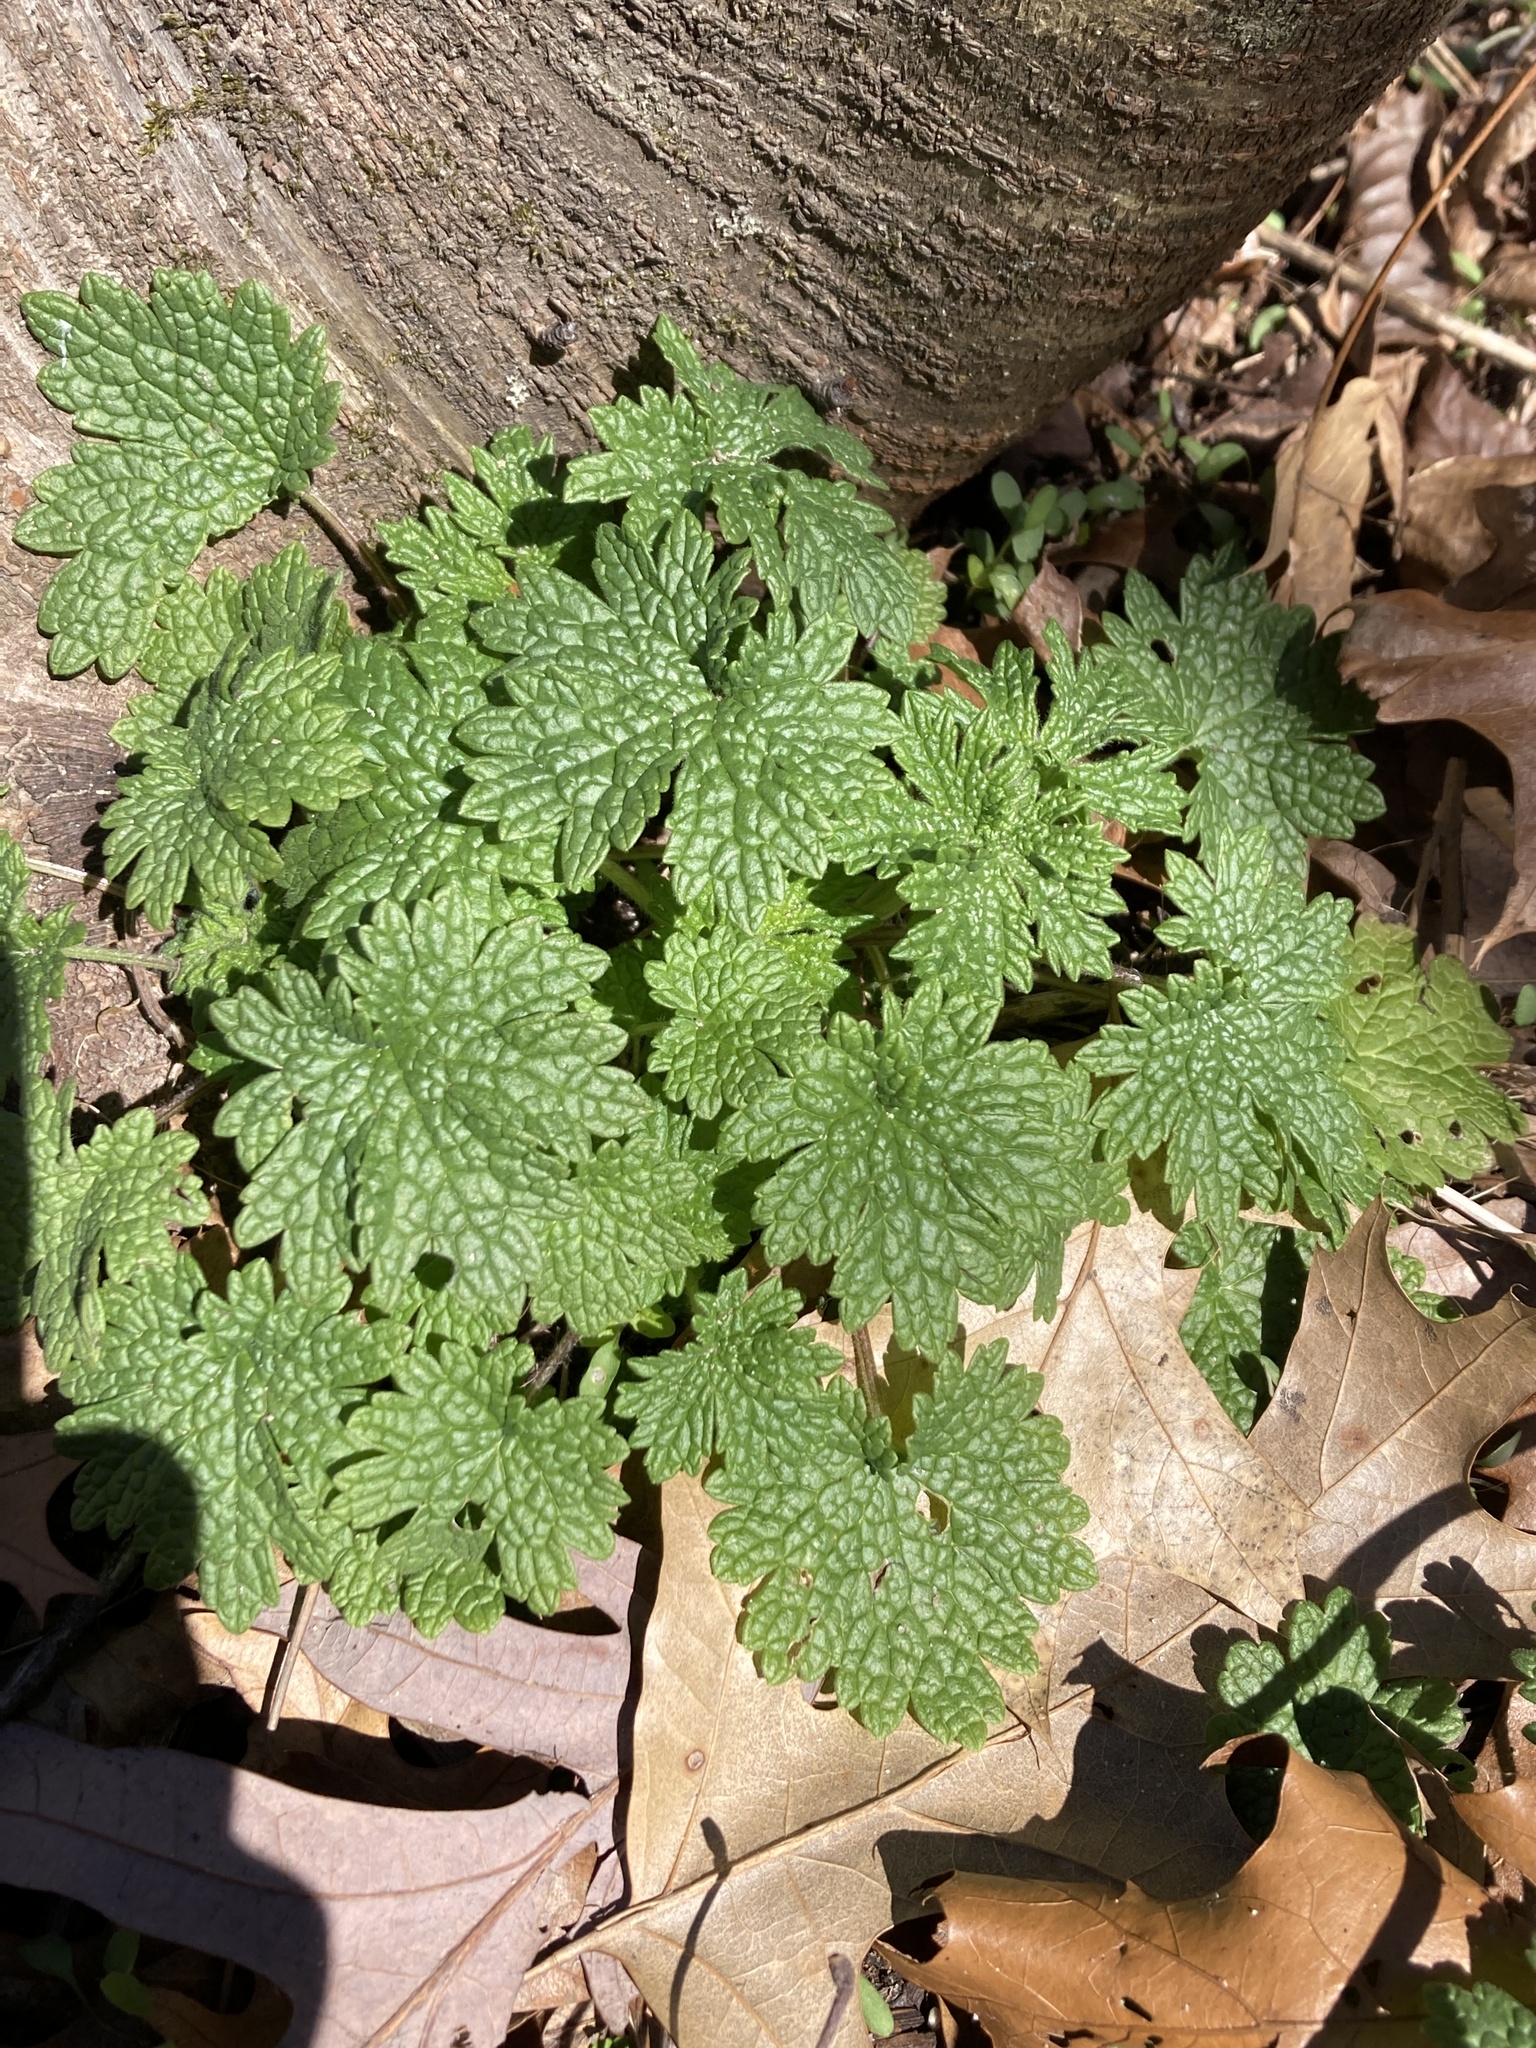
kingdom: Plantae
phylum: Tracheophyta
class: Magnoliopsida
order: Lamiales
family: Lamiaceae
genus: Leonurus
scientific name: Leonurus cardiaca
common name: Motherwort
